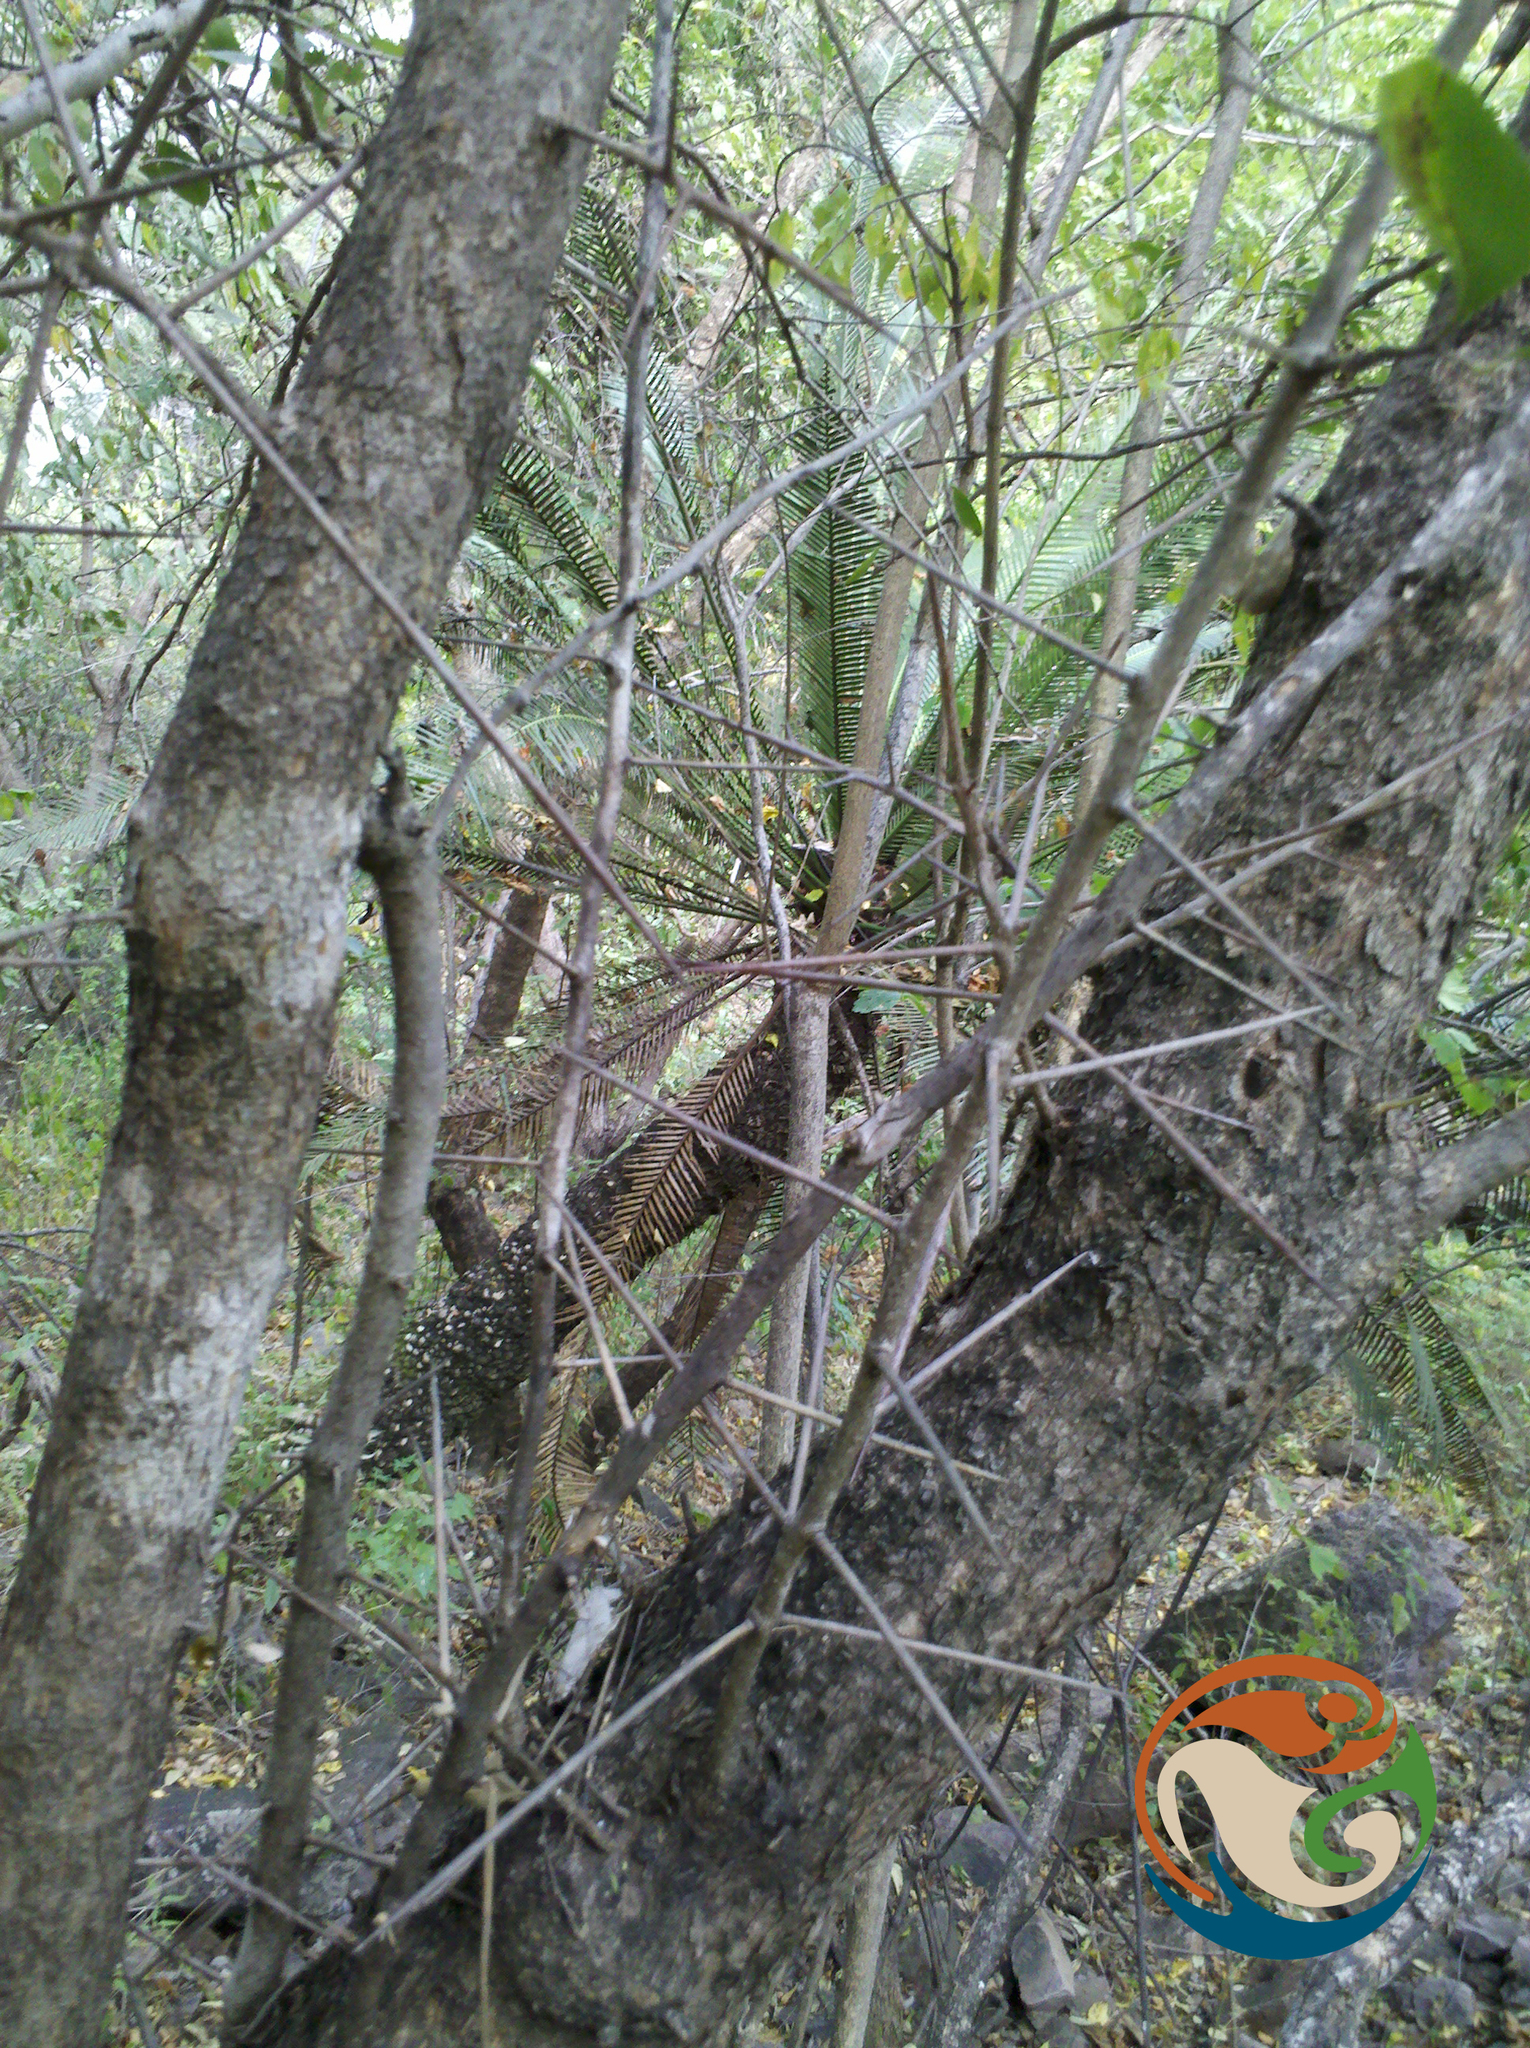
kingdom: Plantae
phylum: Tracheophyta
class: Magnoliopsida
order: Malpighiales
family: Salicaceae
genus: Xylosma
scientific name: Xylosma flexuosa
